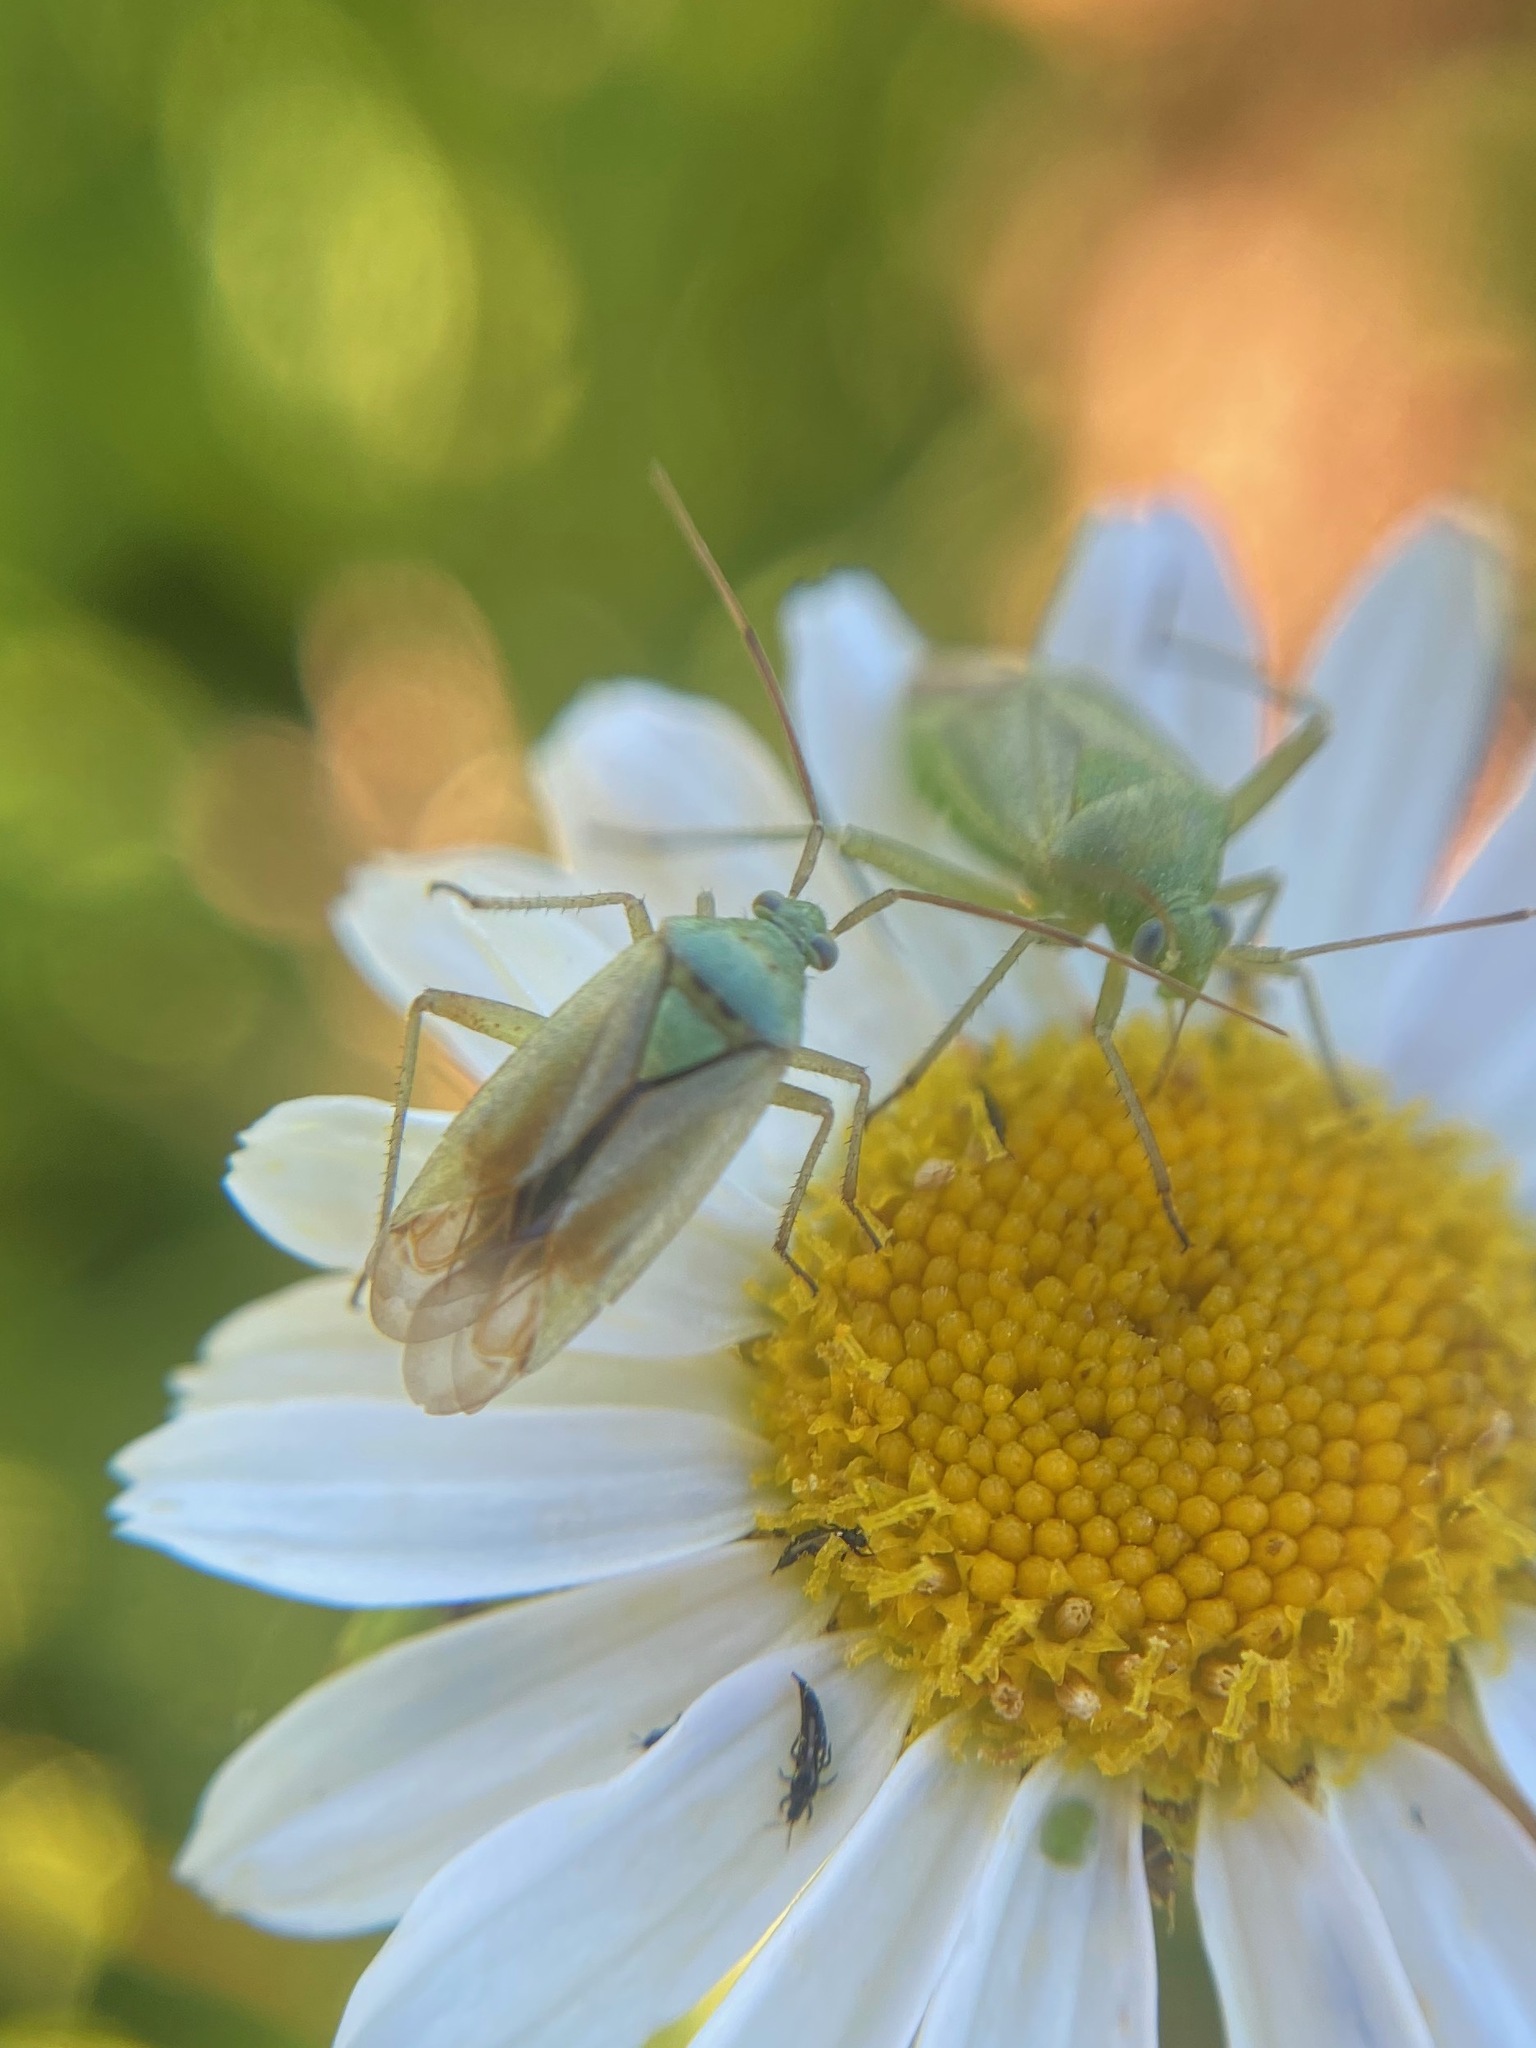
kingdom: Animalia
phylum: Arthropoda
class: Insecta
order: Hemiptera
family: Miridae
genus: Closterotomus
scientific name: Closterotomus norvegicus
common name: Plant bug
